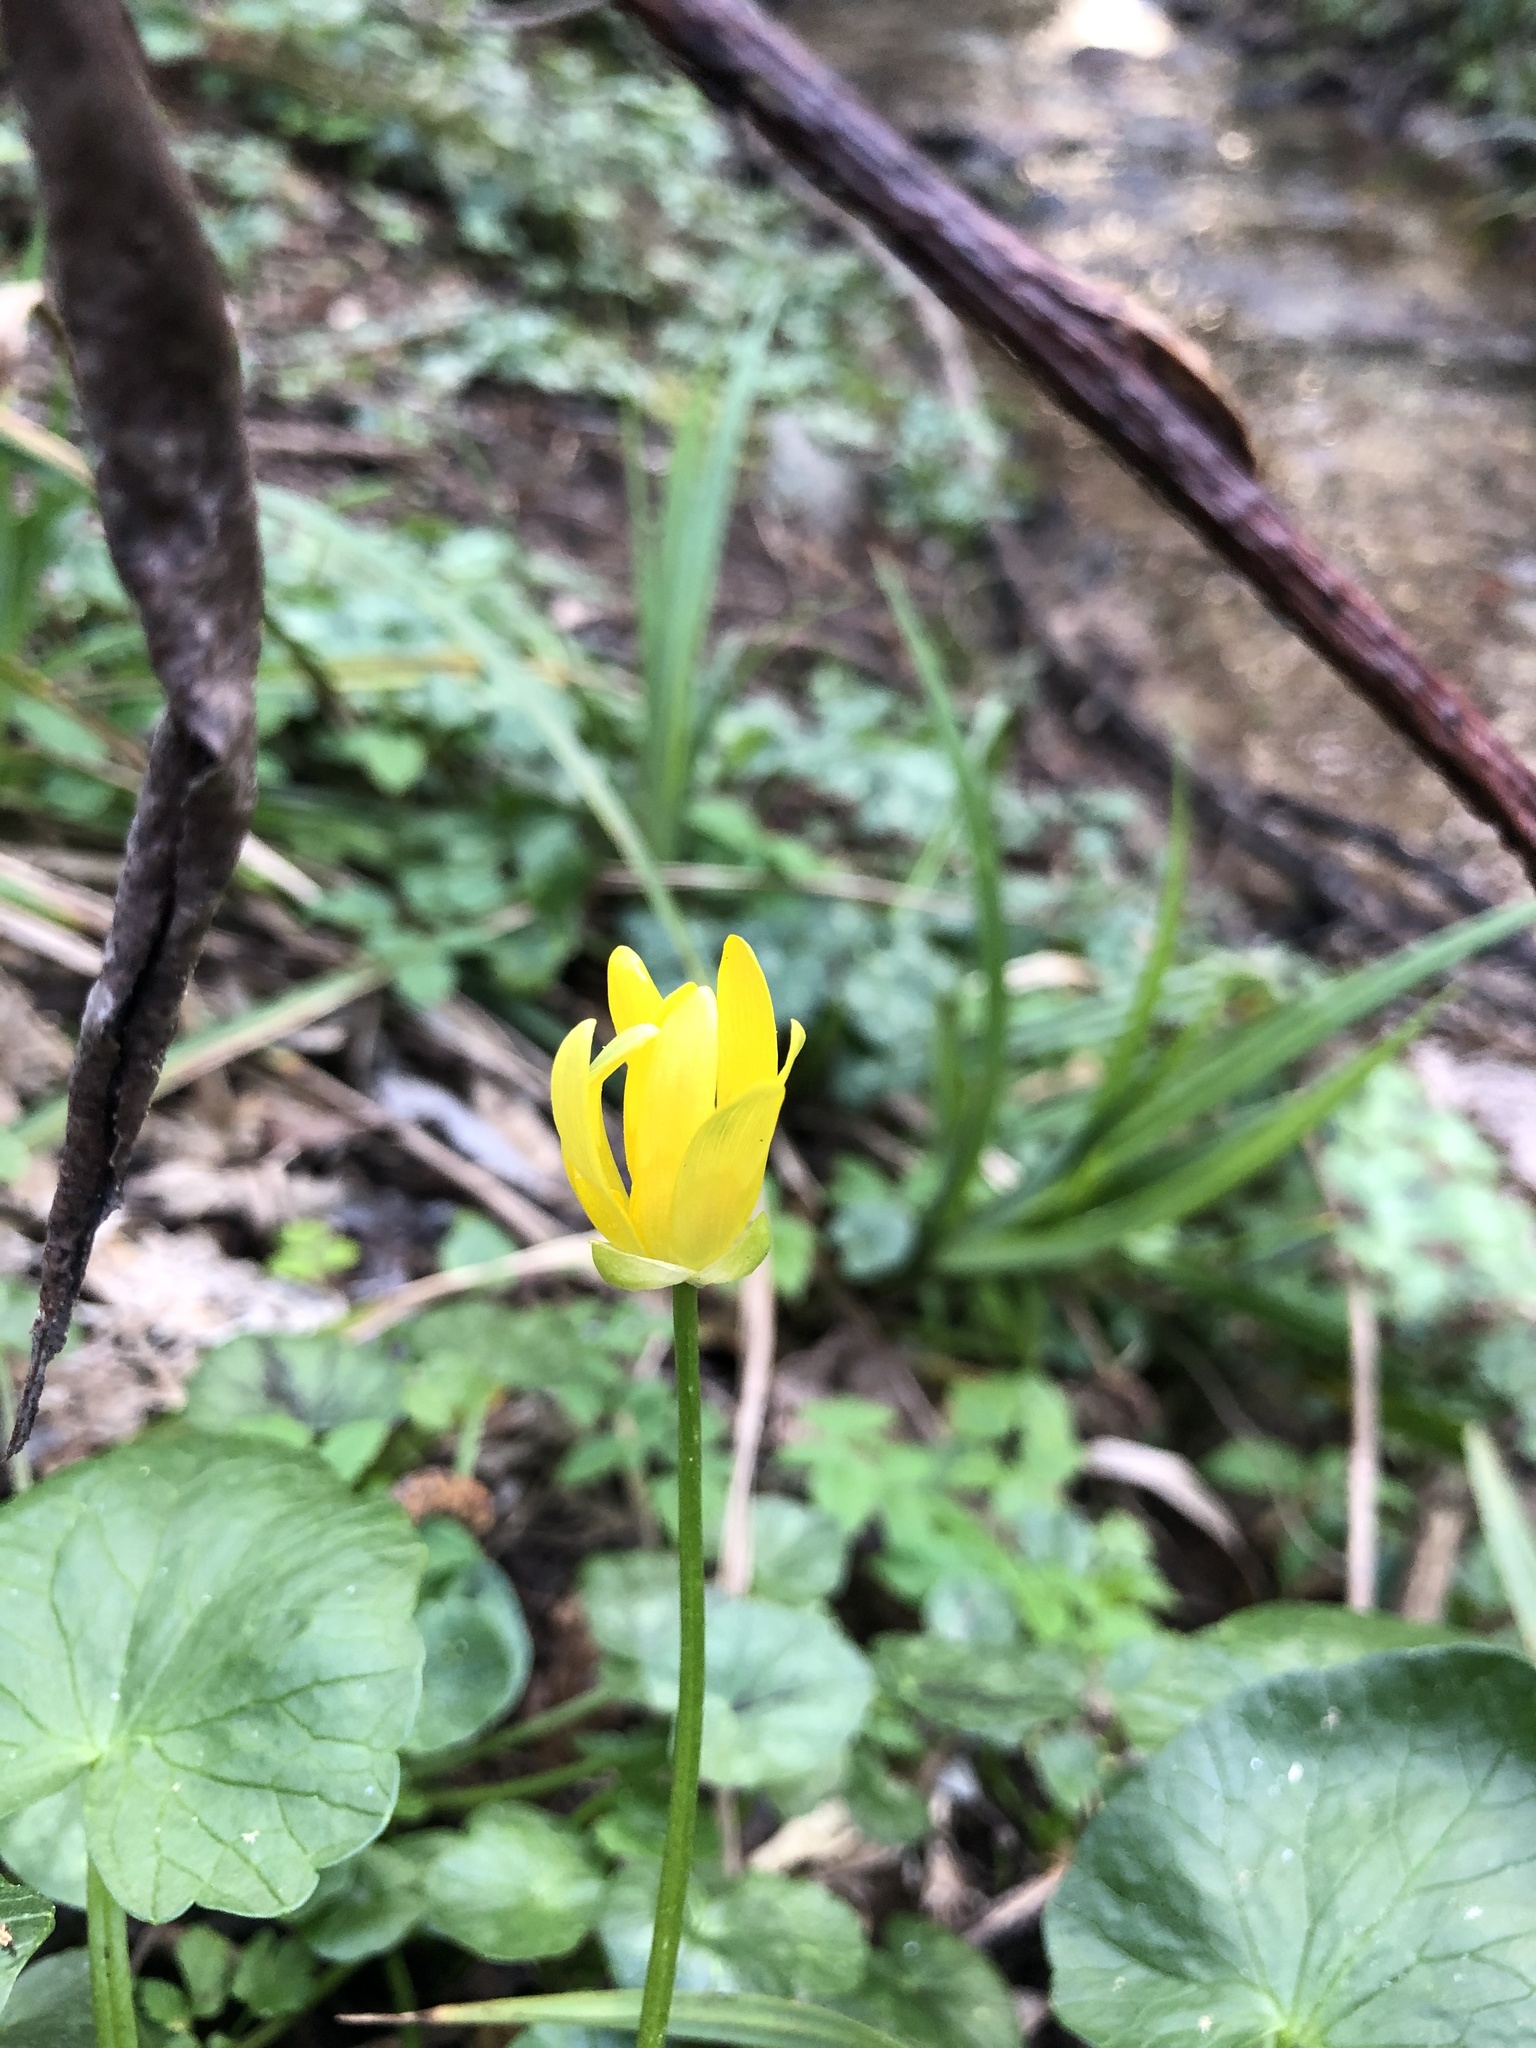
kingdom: Plantae
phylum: Tracheophyta
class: Magnoliopsida
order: Ranunculales
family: Ranunculaceae
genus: Ficaria
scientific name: Ficaria verna
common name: Lesser celandine
